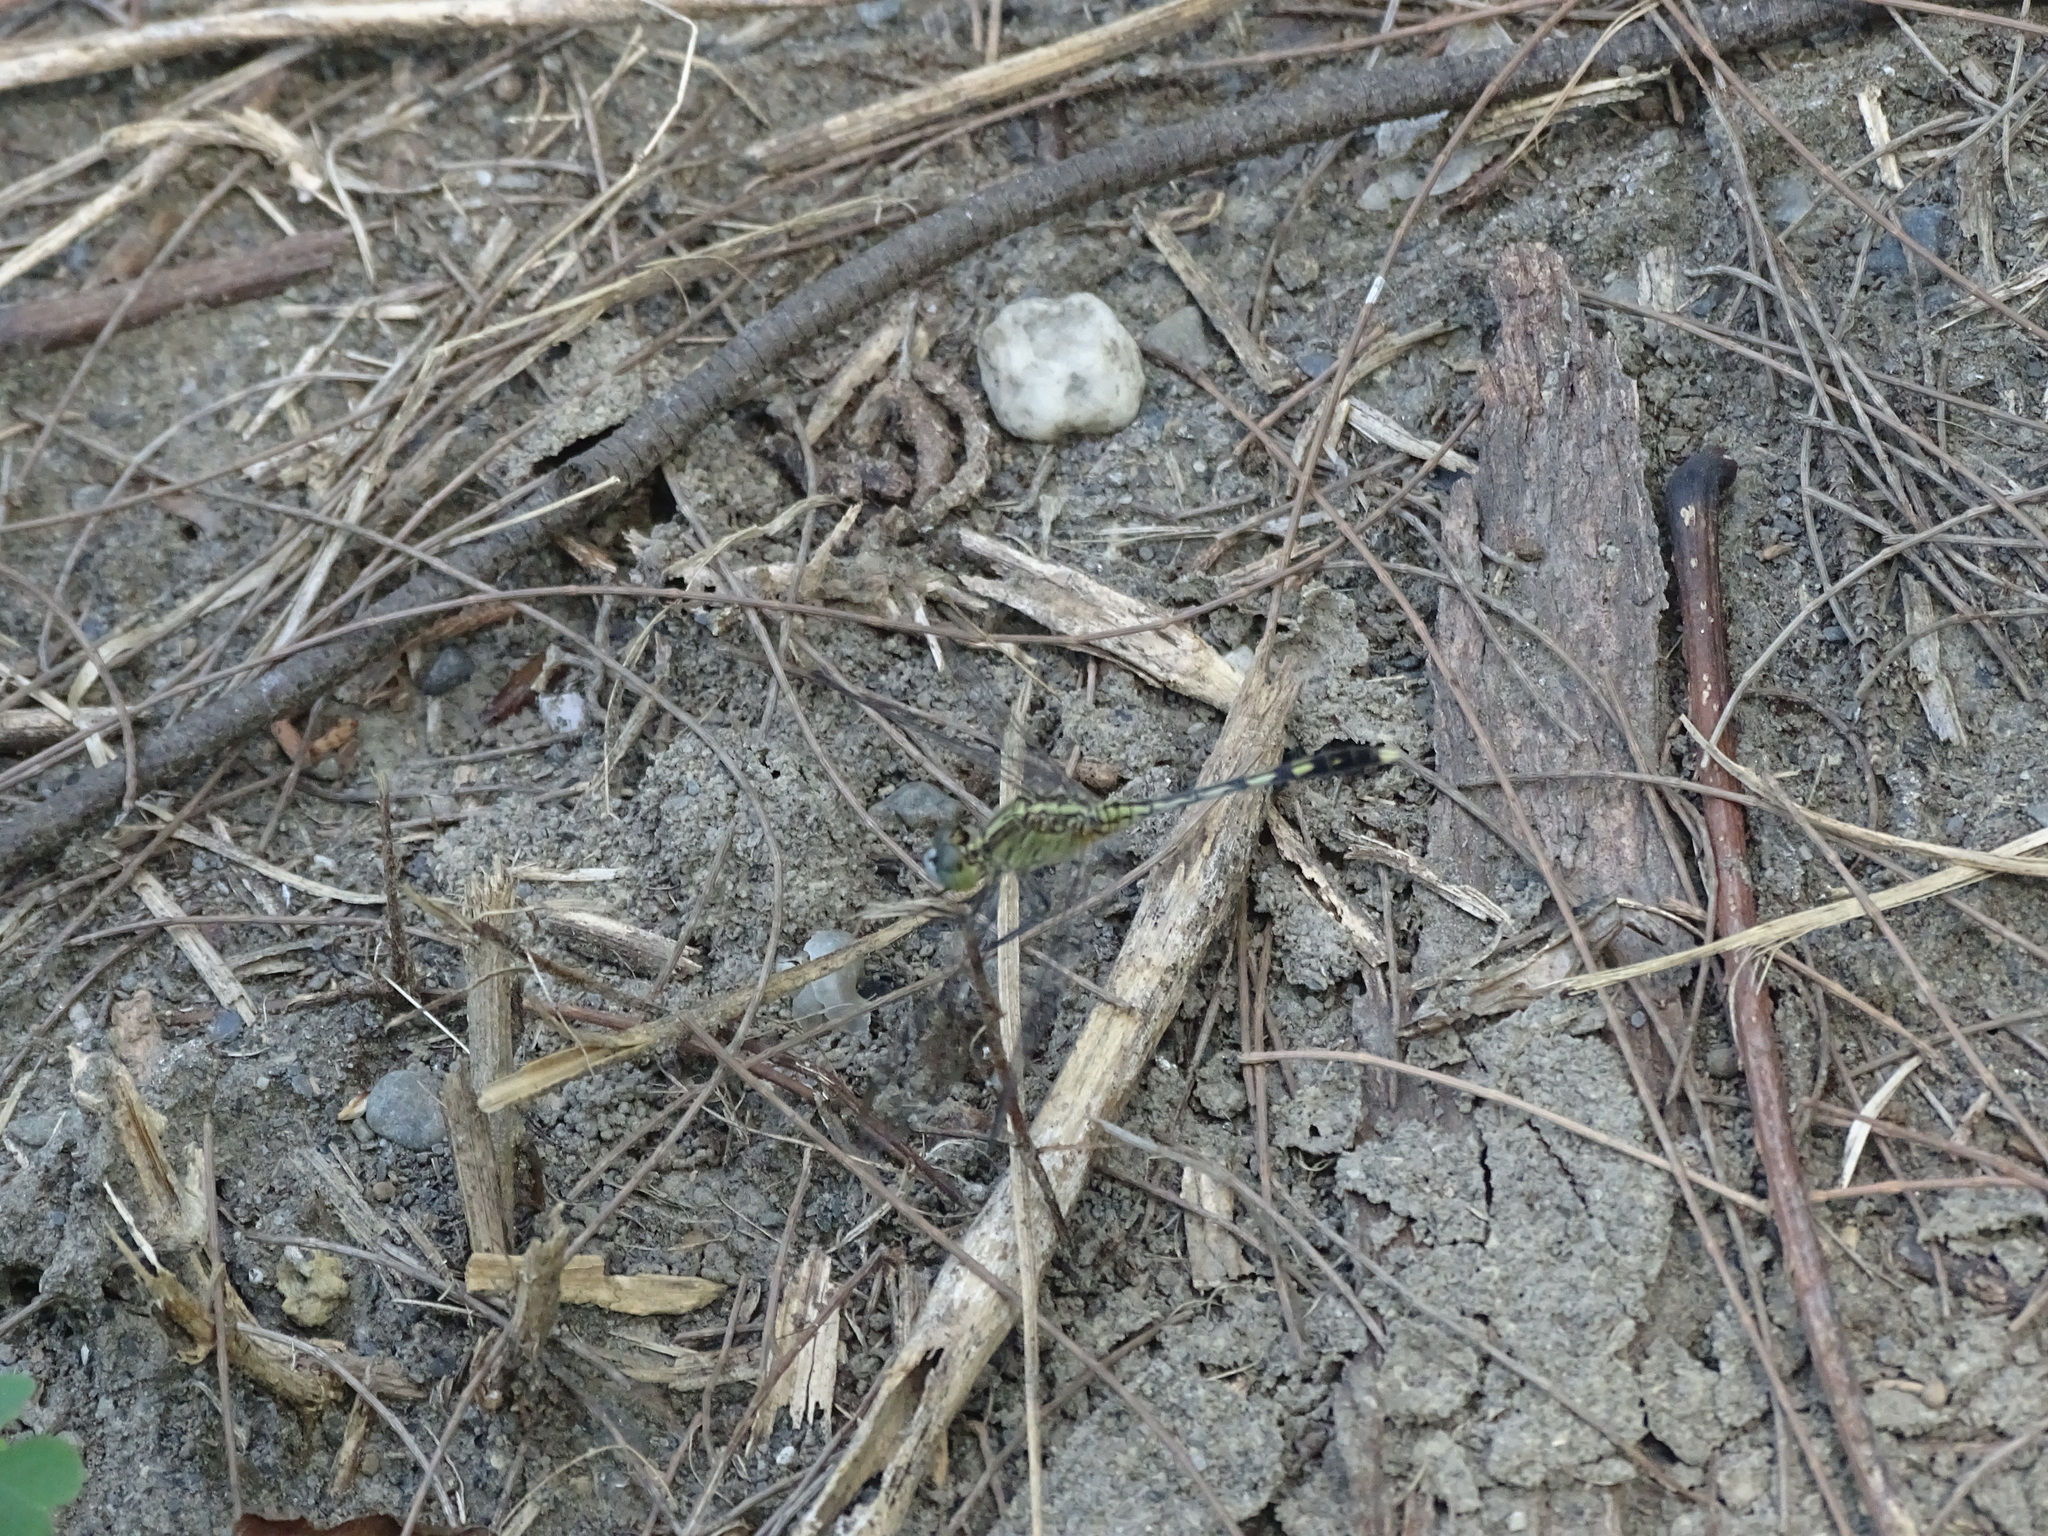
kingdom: Animalia
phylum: Arthropoda
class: Insecta
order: Odonata
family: Libellulidae
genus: Diplacodes
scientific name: Diplacodes trivialis
